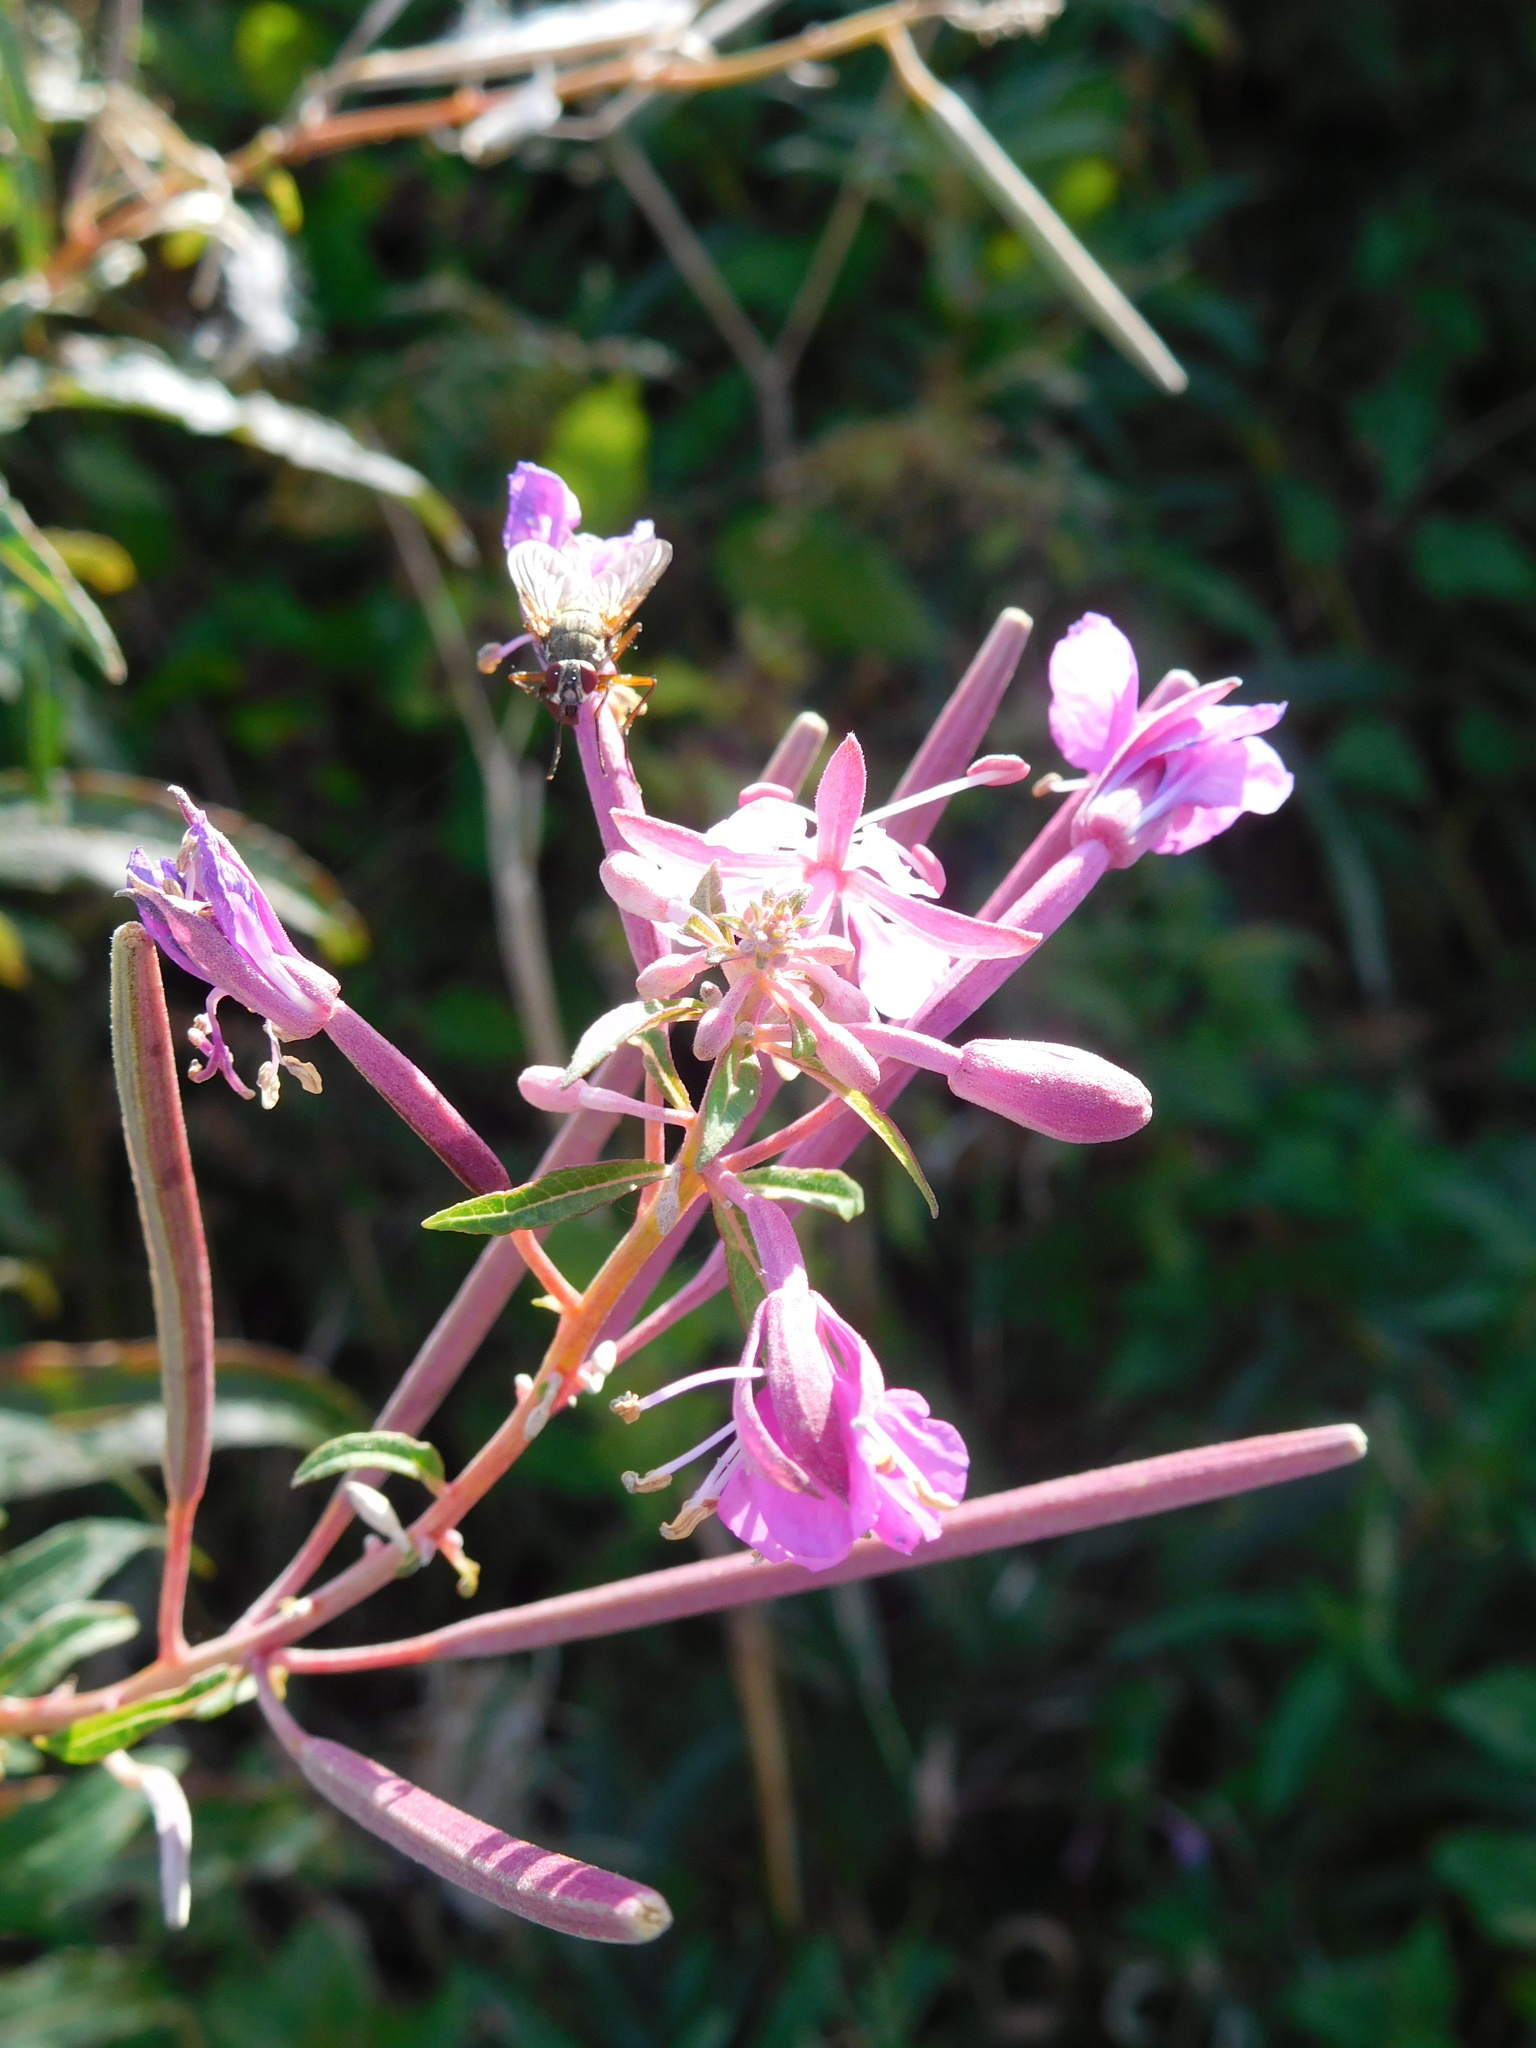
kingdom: Plantae
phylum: Tracheophyta
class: Magnoliopsida
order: Myrtales
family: Onagraceae
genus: Chamaenerion
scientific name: Chamaenerion angustifolium
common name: Fireweed
